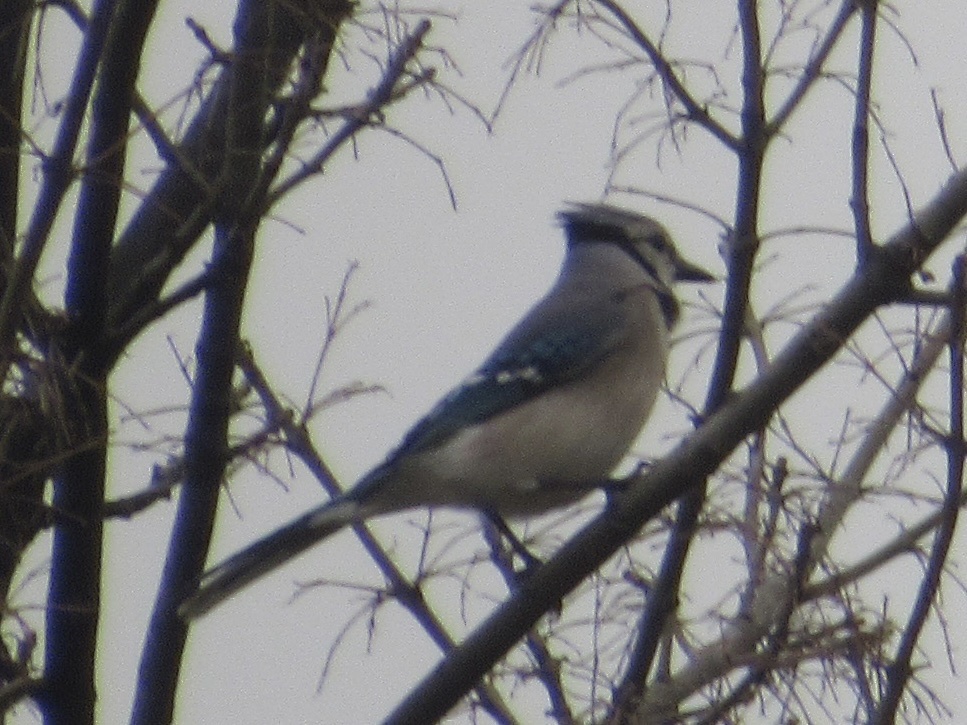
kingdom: Animalia
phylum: Chordata
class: Aves
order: Passeriformes
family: Corvidae
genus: Cyanocitta
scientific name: Cyanocitta cristata
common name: Blue jay
